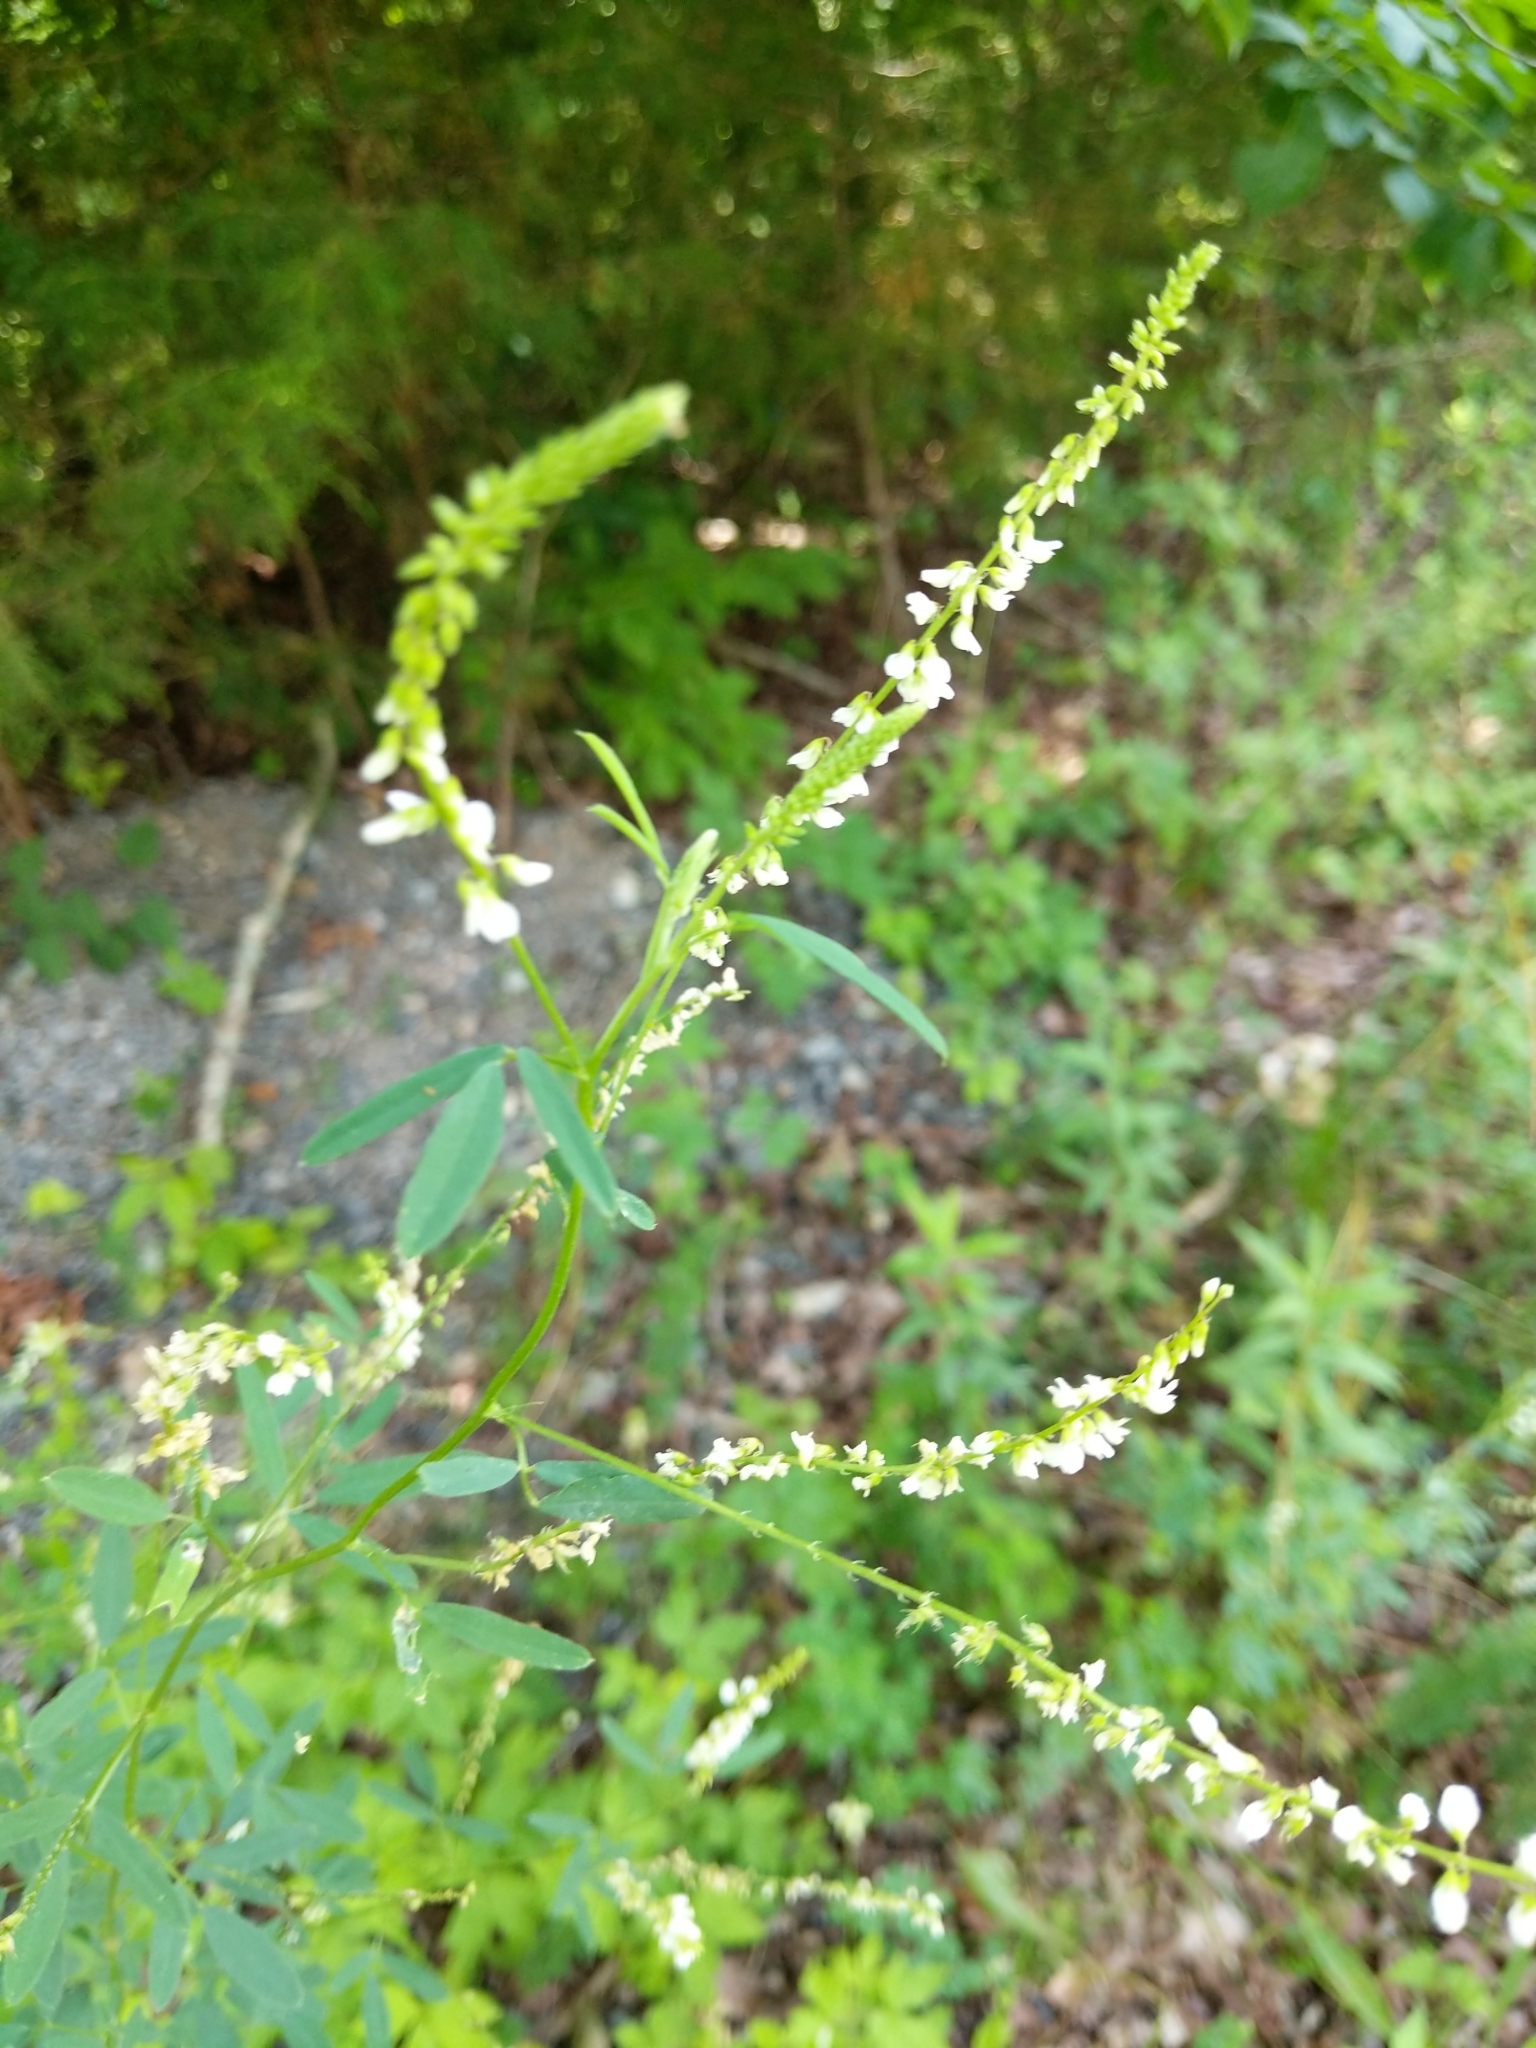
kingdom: Plantae
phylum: Tracheophyta
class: Magnoliopsida
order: Fabales
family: Fabaceae
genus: Melilotus
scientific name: Melilotus albus
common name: White melilot
